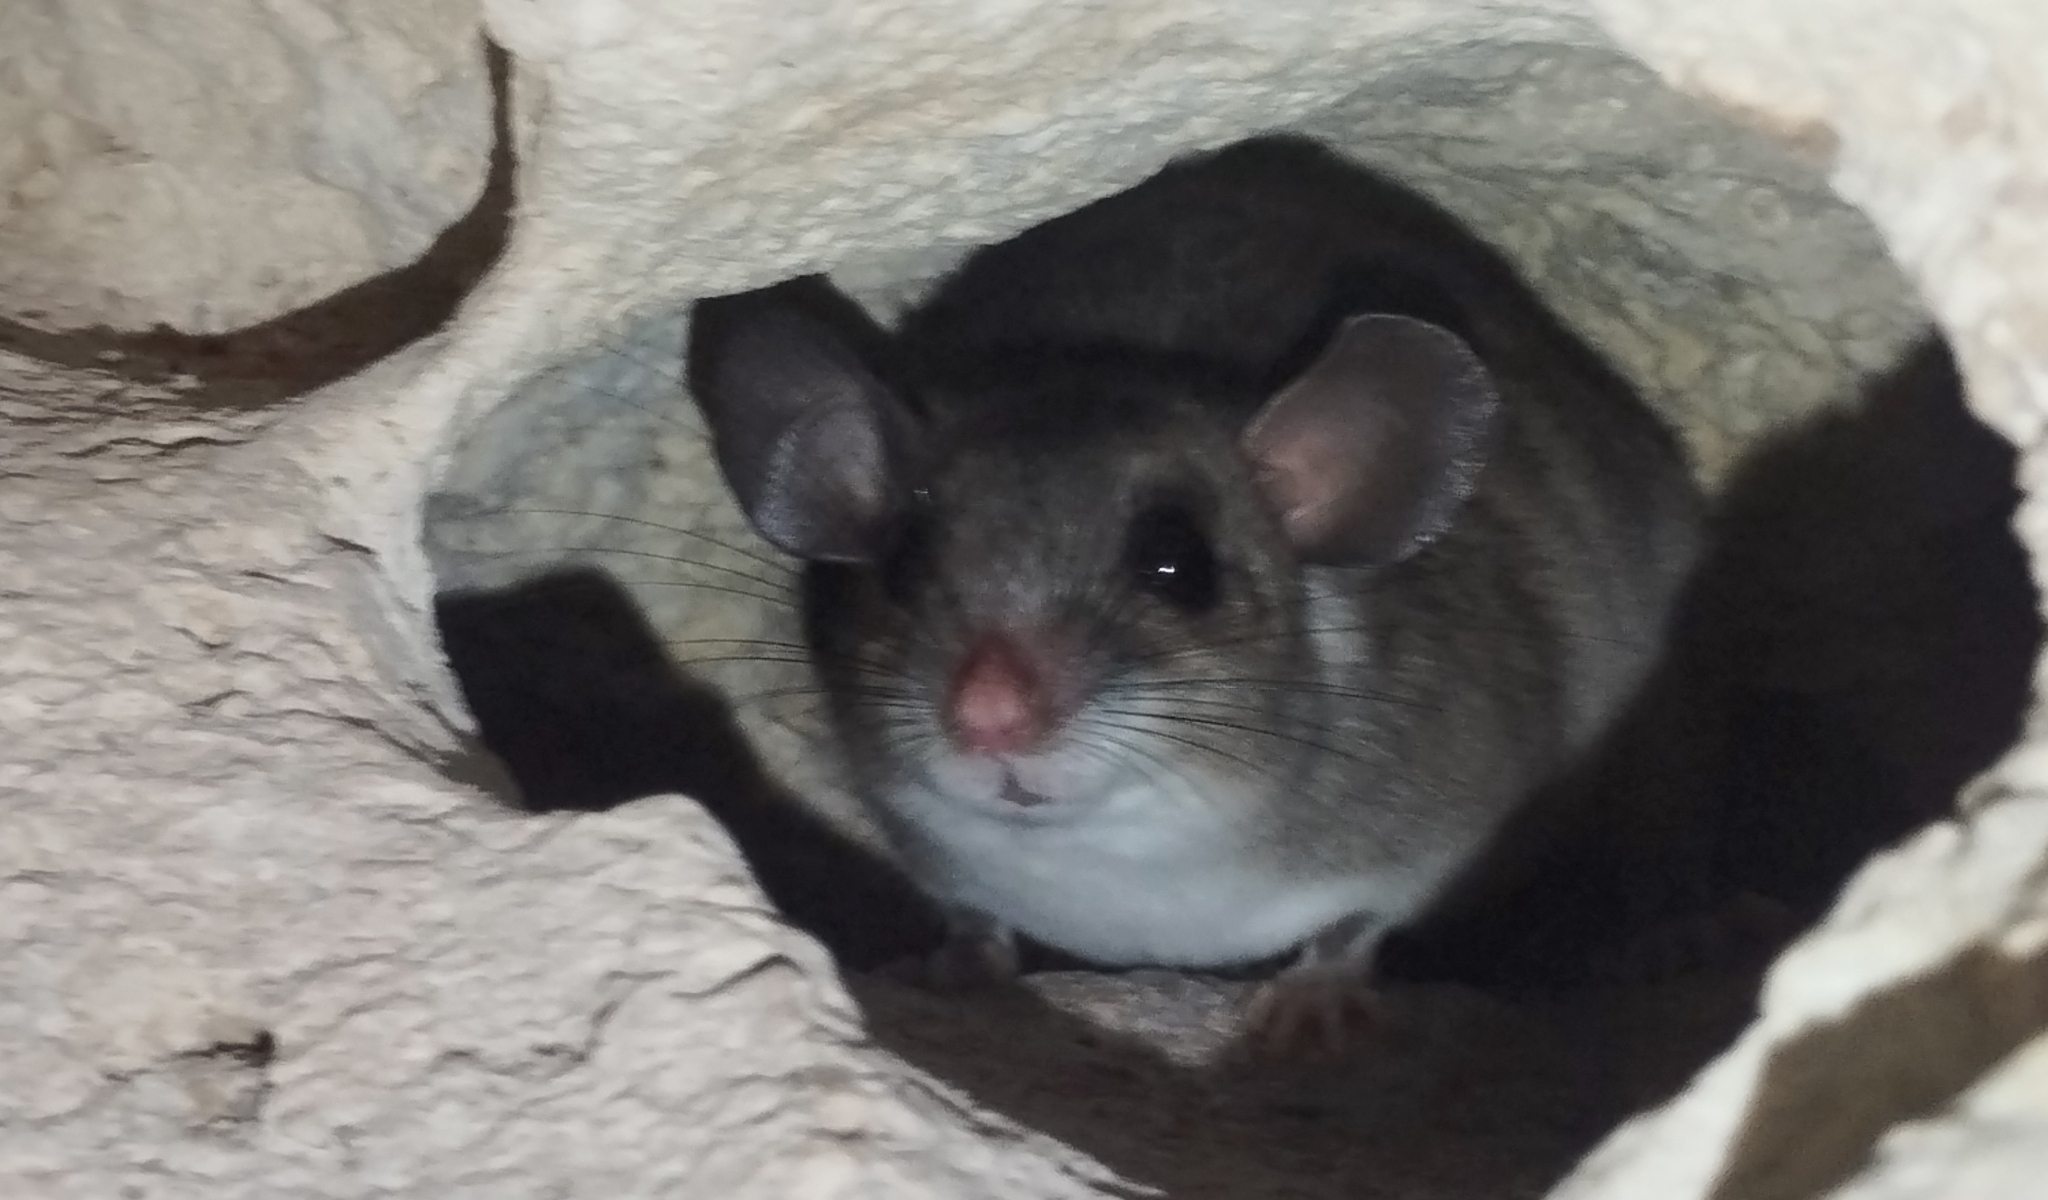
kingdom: Animalia
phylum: Chordata
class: Mammalia
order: Rodentia
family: Cricetidae
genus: Ototylomys
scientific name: Ototylomys phyllotis
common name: Big-eared climbing rat
